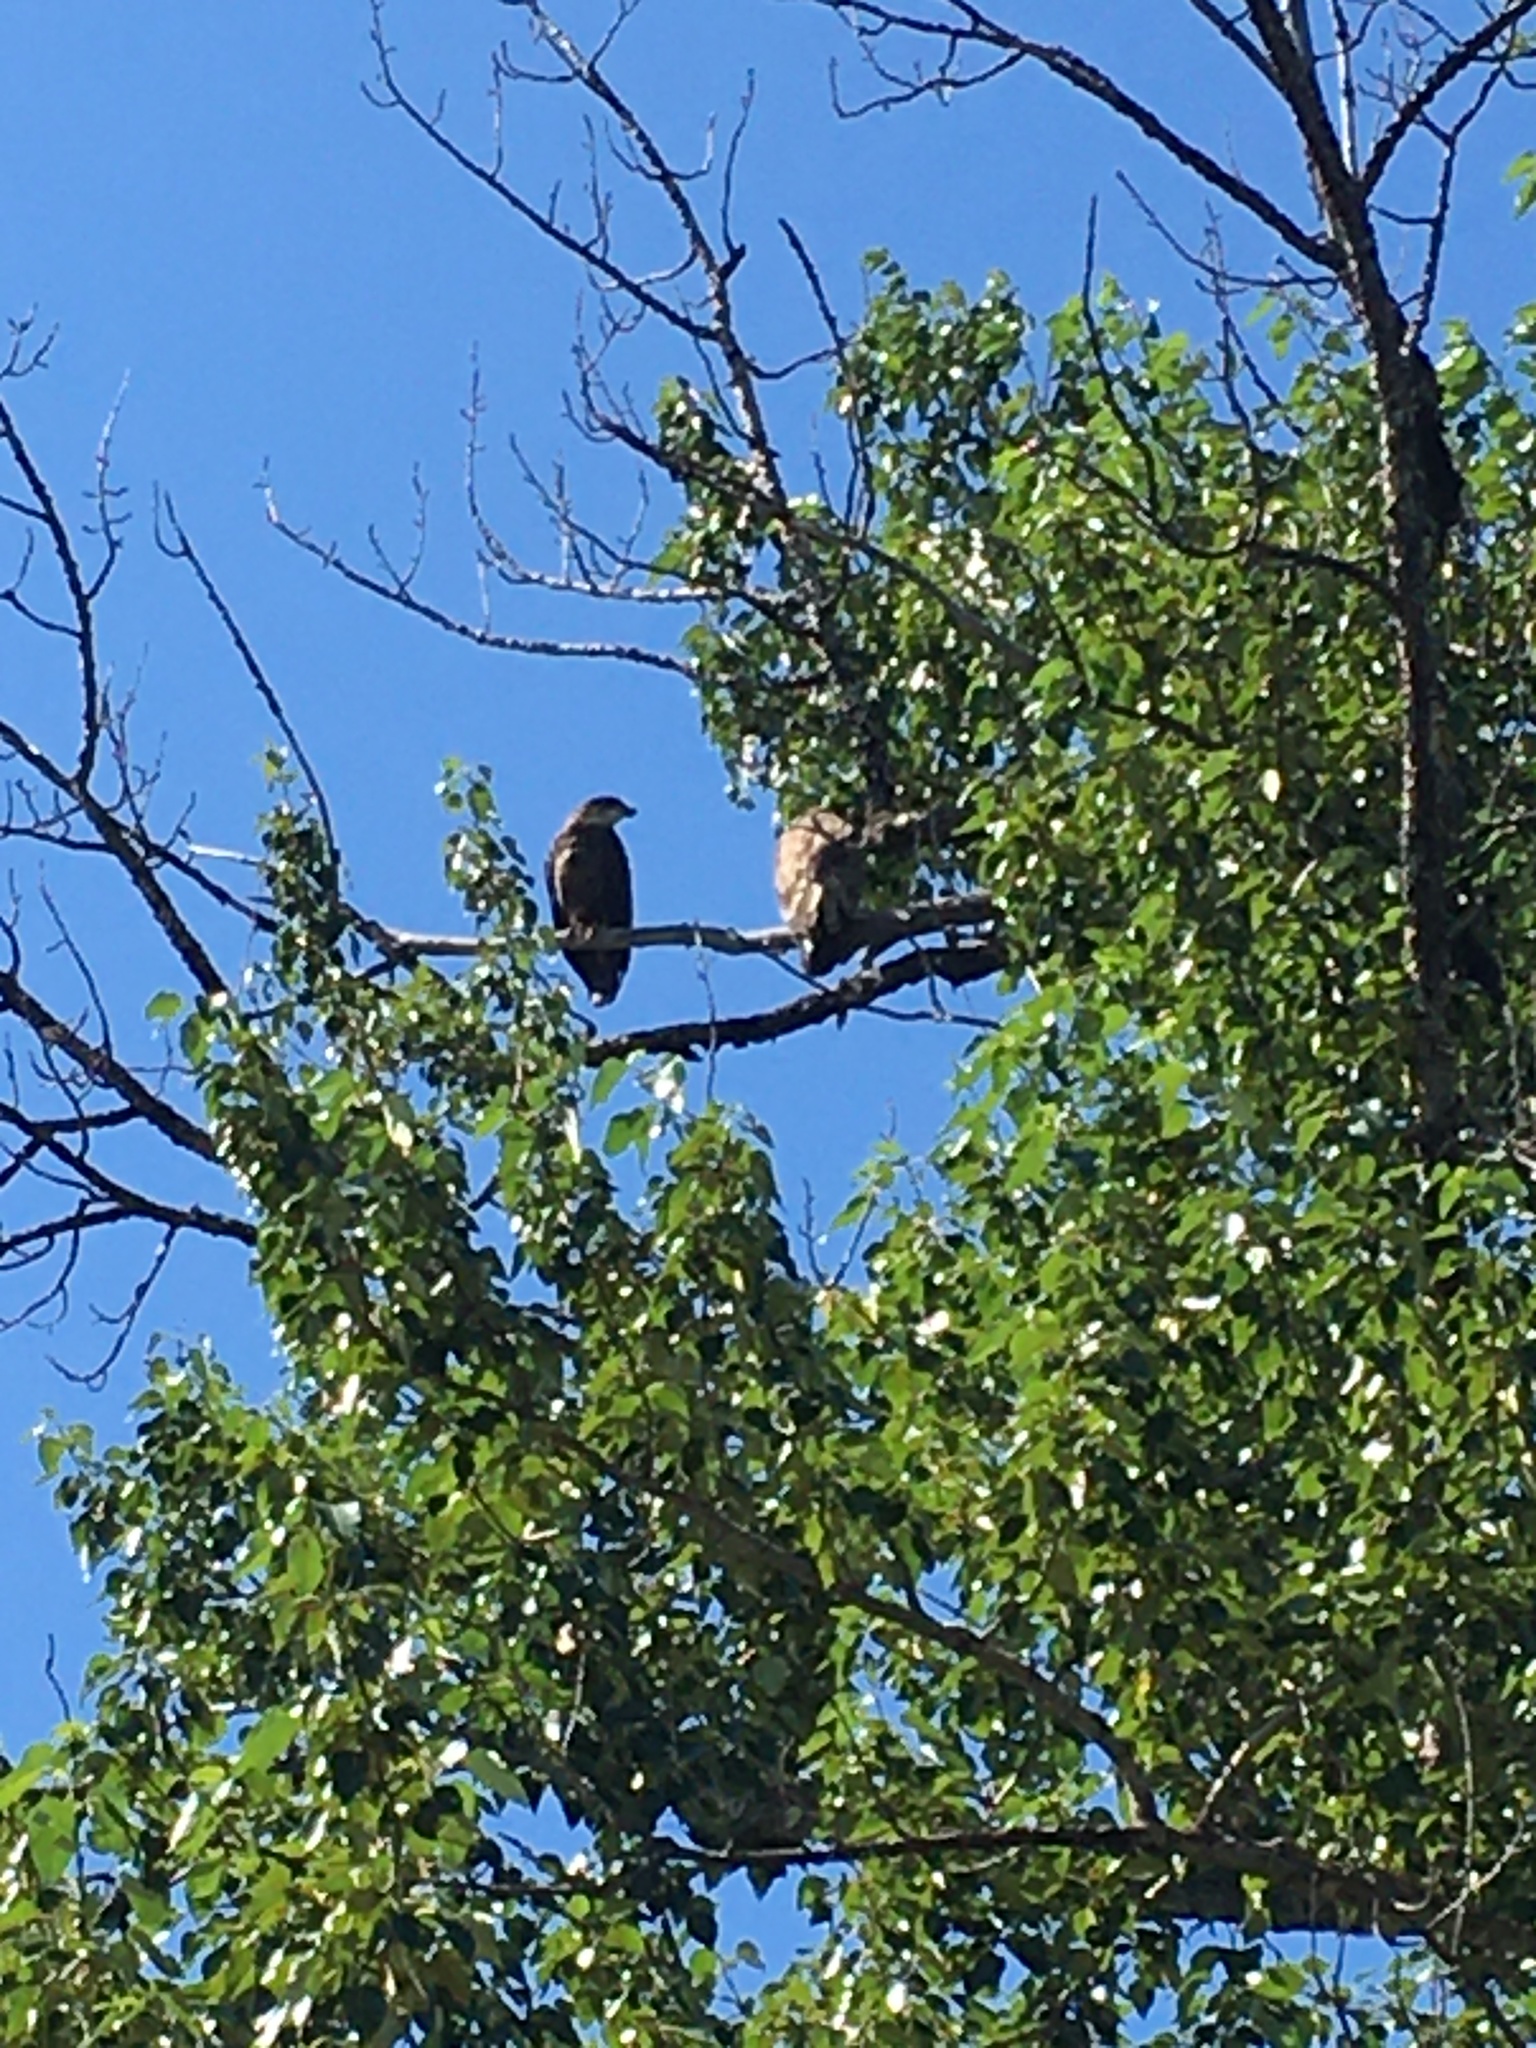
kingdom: Animalia
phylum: Chordata
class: Aves
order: Accipitriformes
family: Accipitridae
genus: Haliaeetus
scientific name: Haliaeetus leucocephalus
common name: Bald eagle
